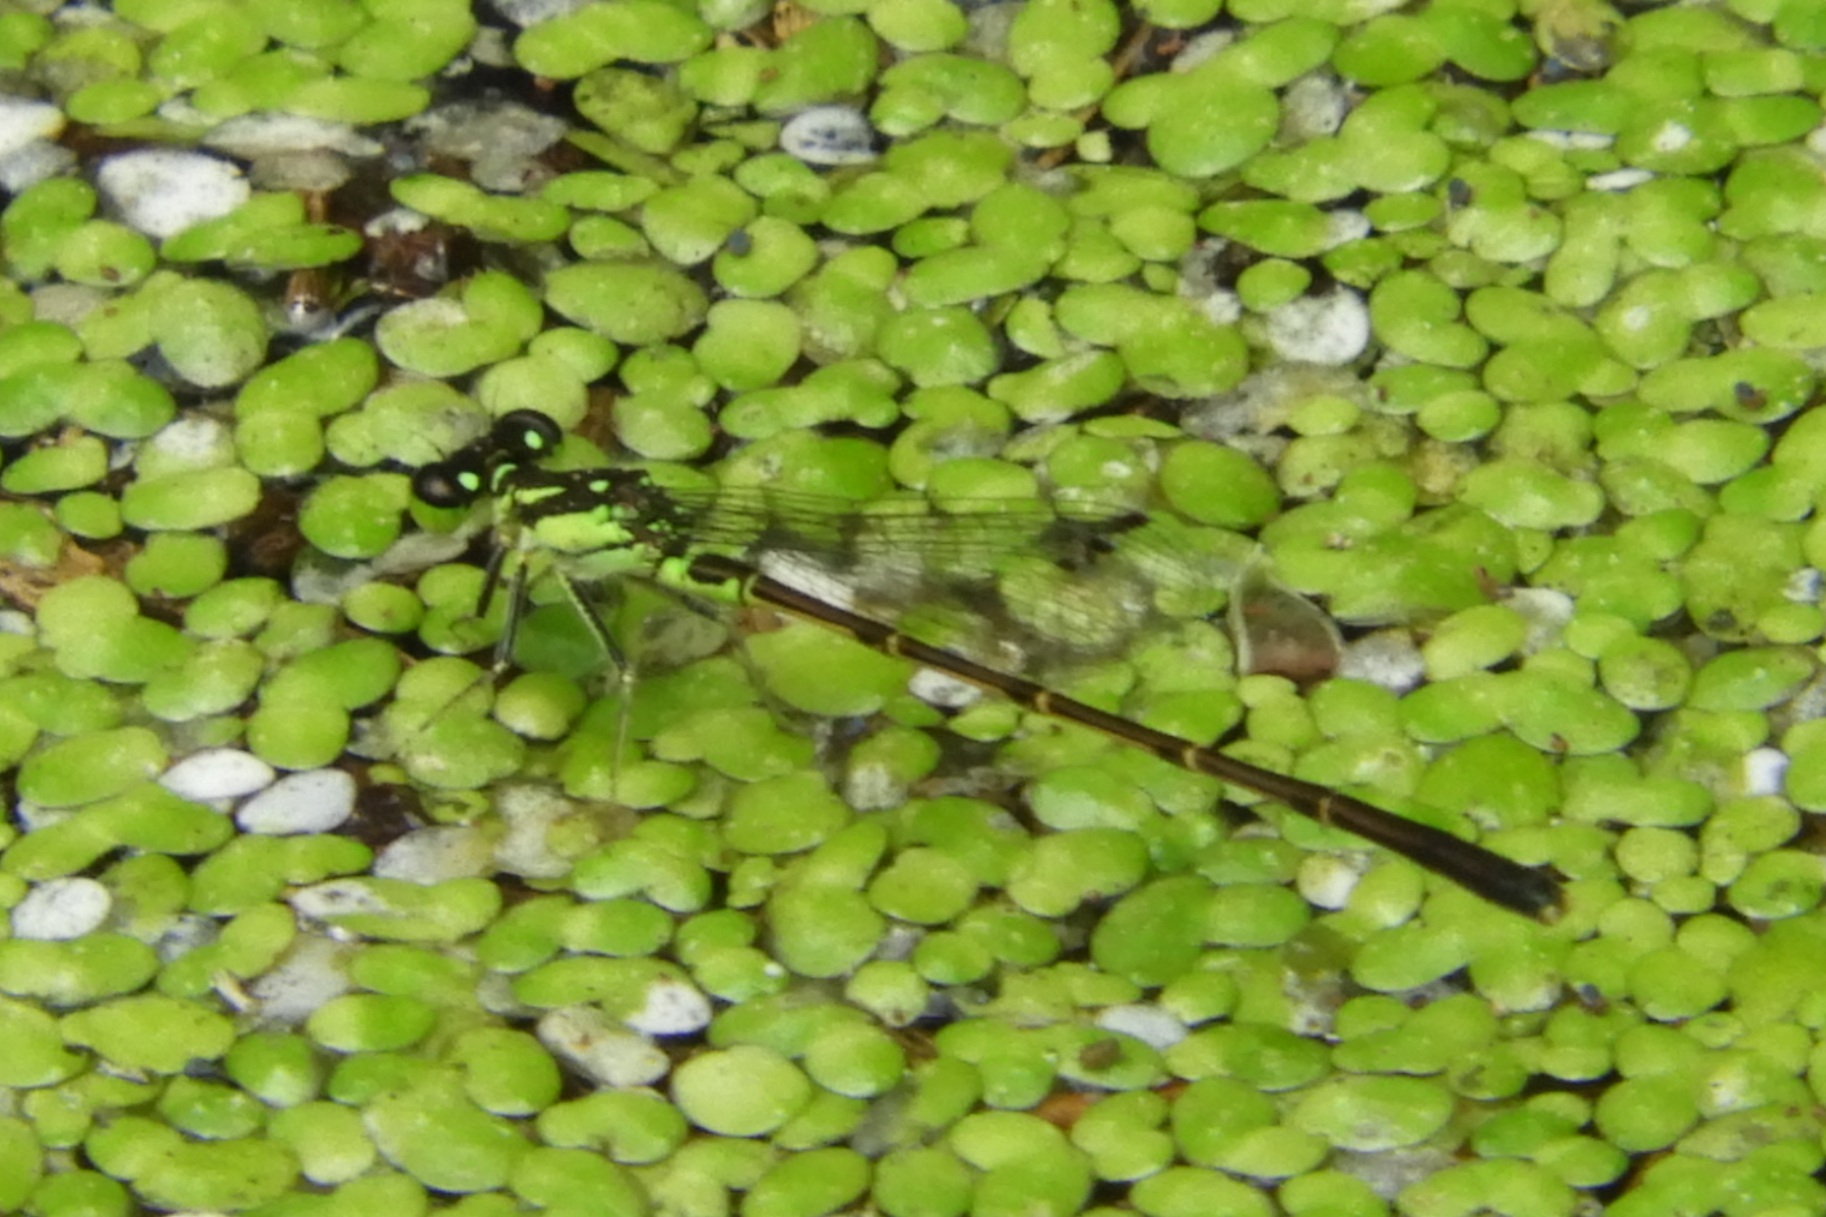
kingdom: Animalia
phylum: Arthropoda
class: Insecta
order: Odonata
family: Coenagrionidae
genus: Ischnura
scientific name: Ischnura posita
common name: Fragile forktail
